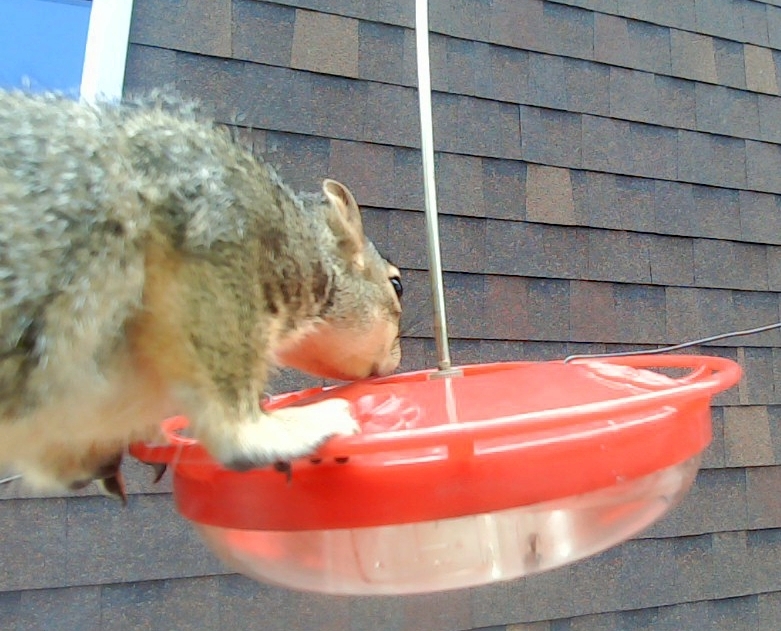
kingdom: Animalia
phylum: Chordata
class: Mammalia
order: Rodentia
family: Sciuridae
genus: Sciurus
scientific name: Sciurus niger
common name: Fox squirrel
